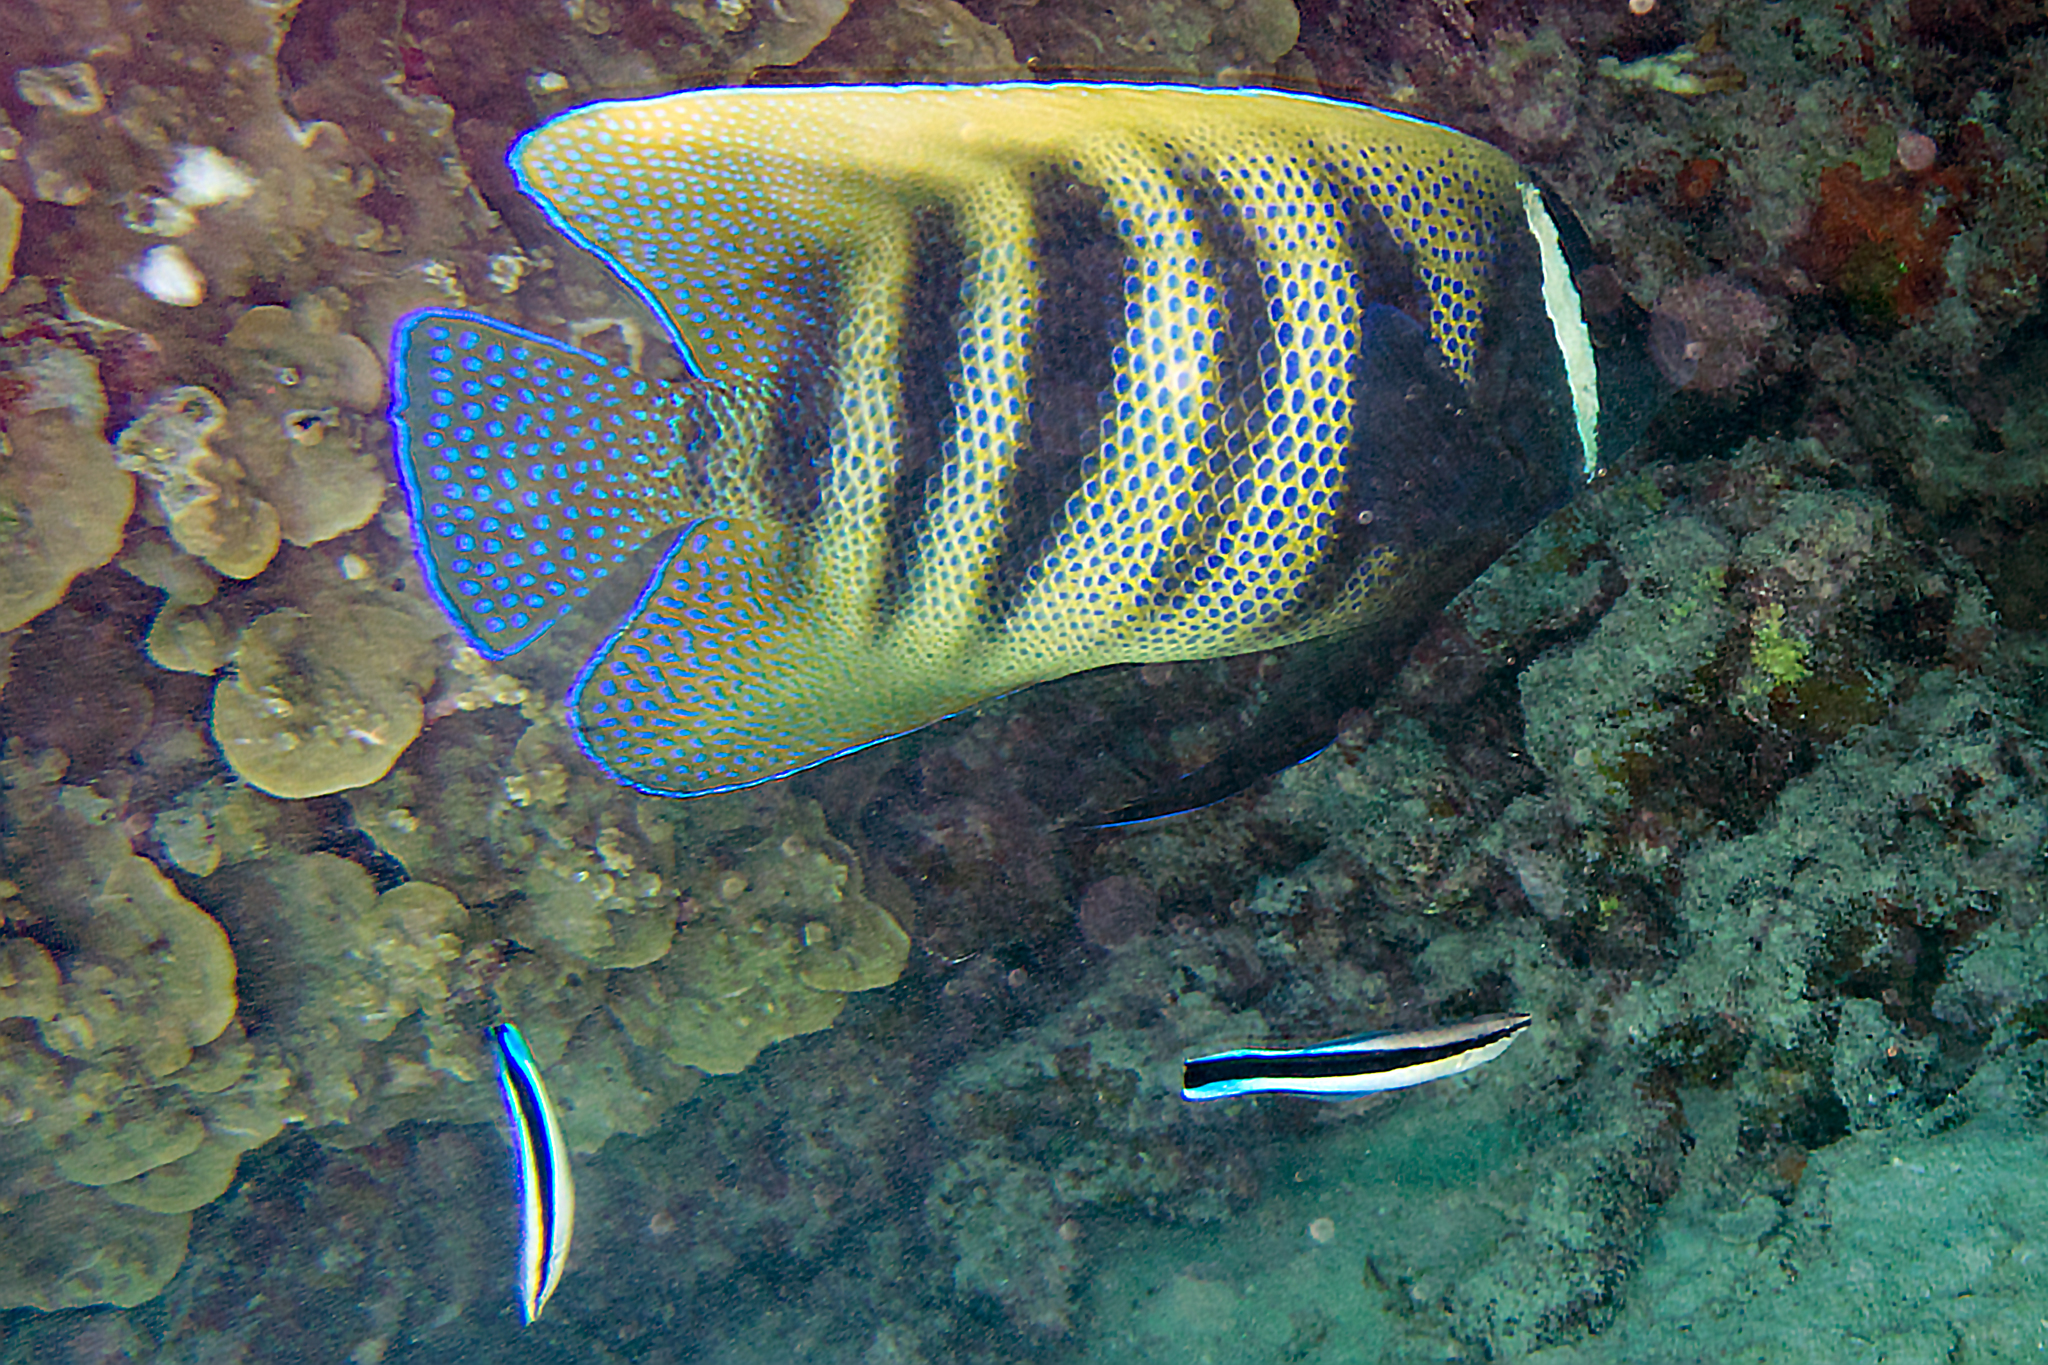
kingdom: Animalia
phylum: Chordata
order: Perciformes
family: Pomacanthidae
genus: Pomacanthus
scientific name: Pomacanthus sexstriatus
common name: Six-banded angelfish
